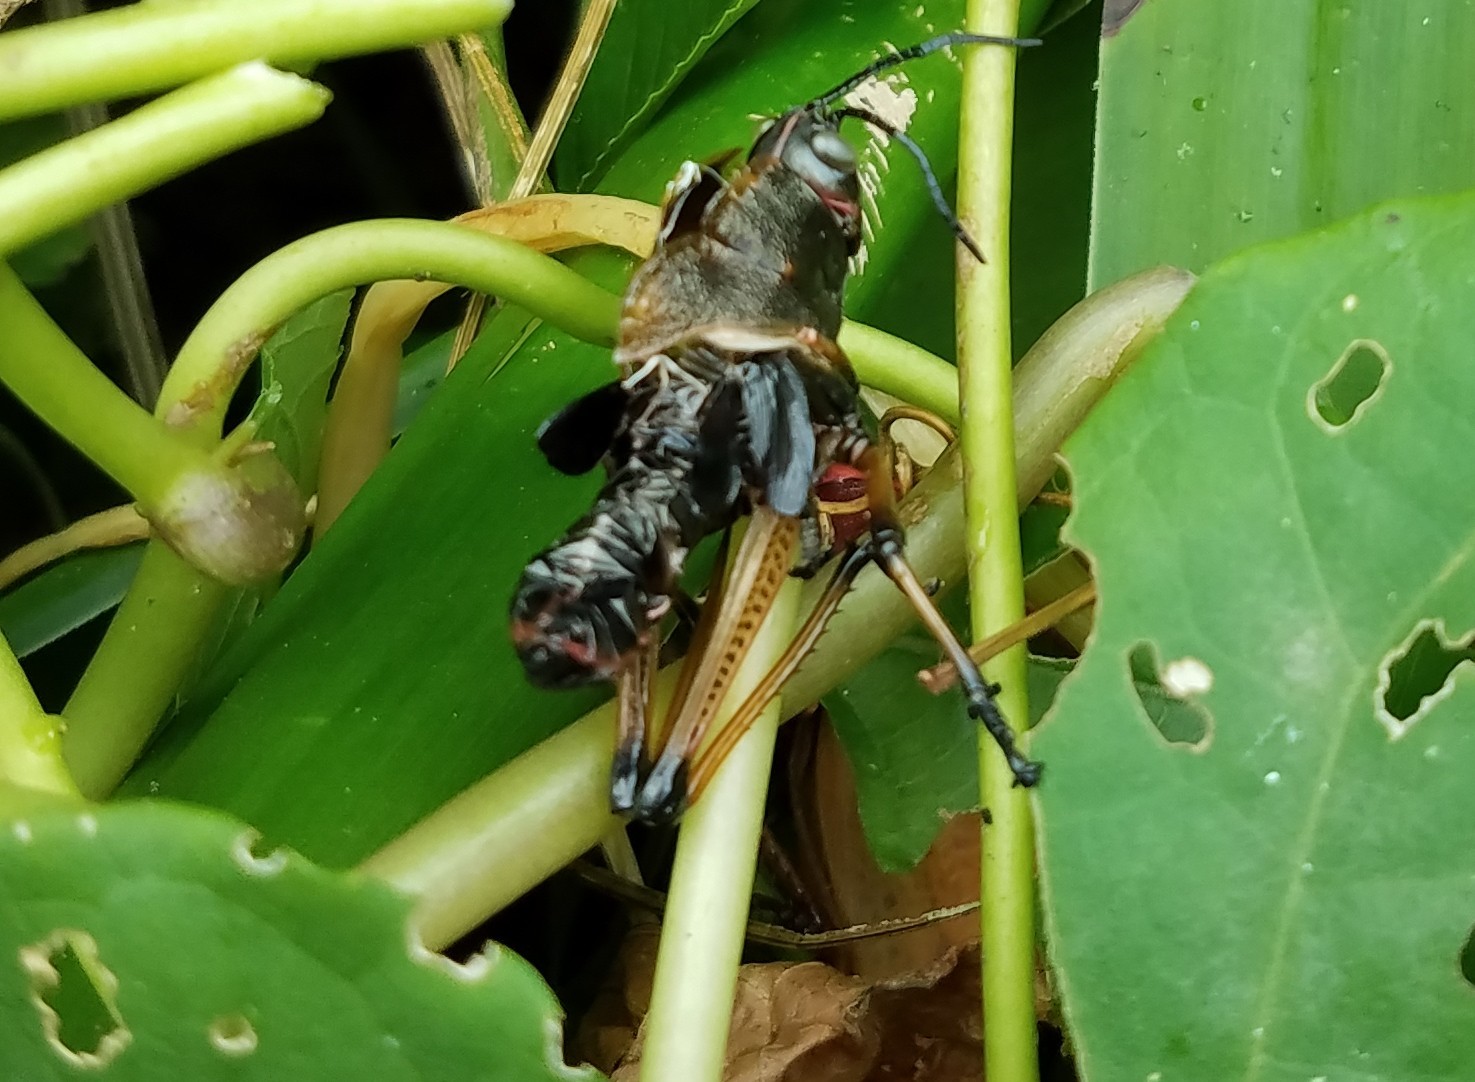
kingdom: Animalia
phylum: Arthropoda
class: Insecta
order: Orthoptera
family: Romaleidae
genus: Romalea
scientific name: Romalea
